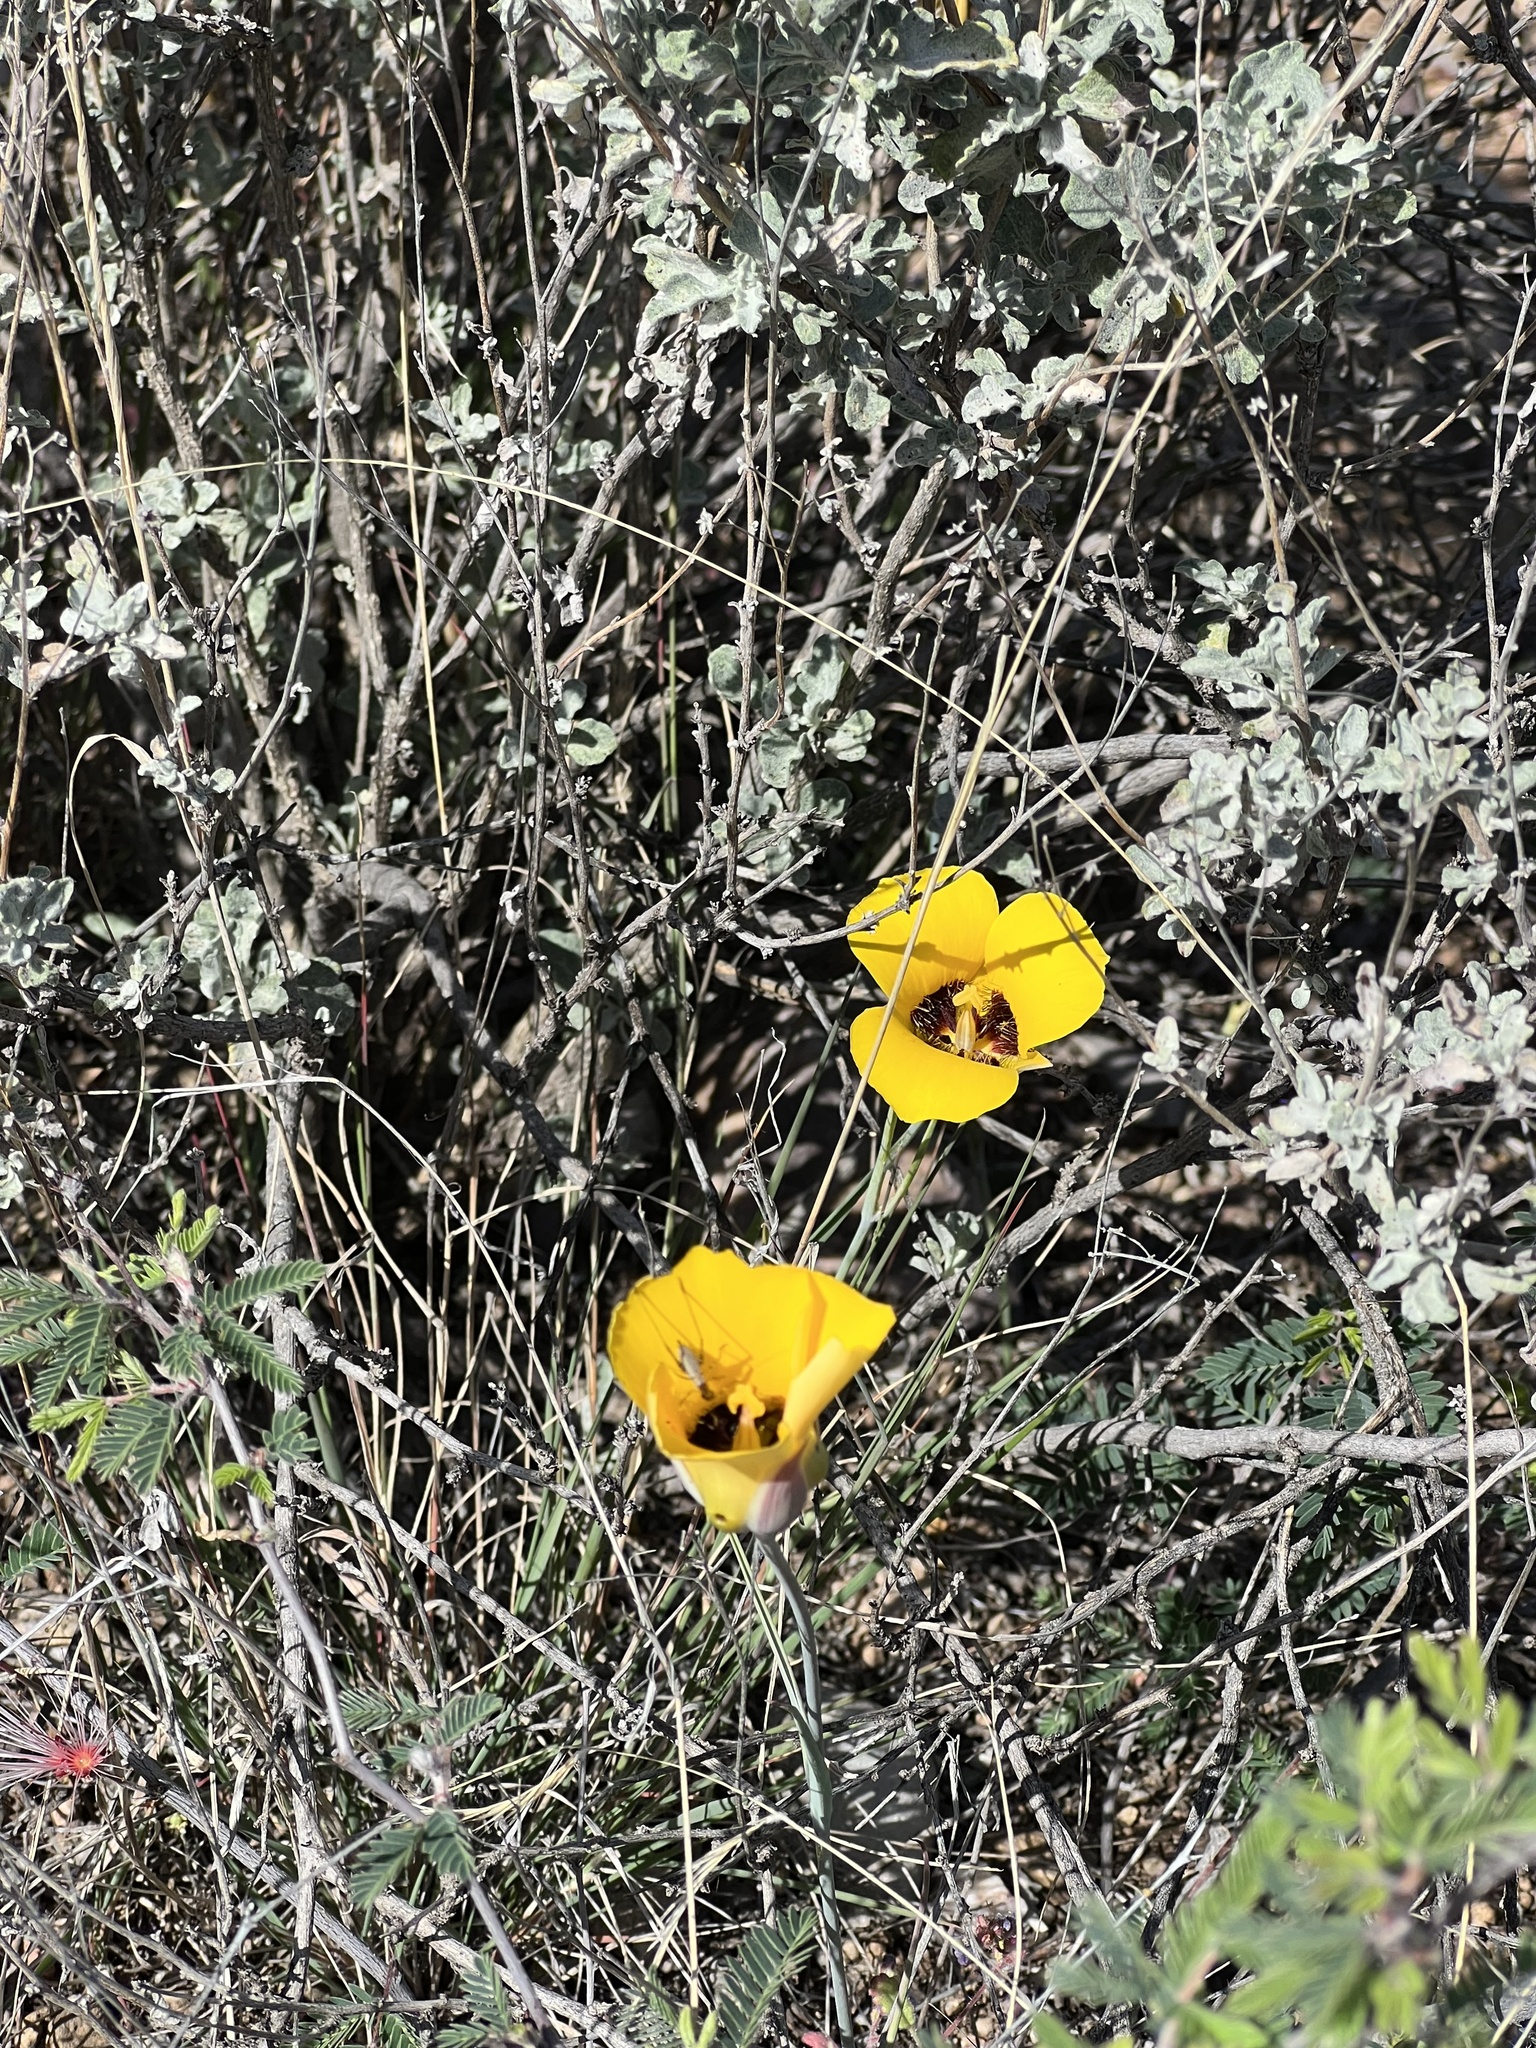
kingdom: Plantae
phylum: Tracheophyta
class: Liliopsida
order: Liliales
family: Liliaceae
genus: Calochortus
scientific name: Calochortus kennedyi
